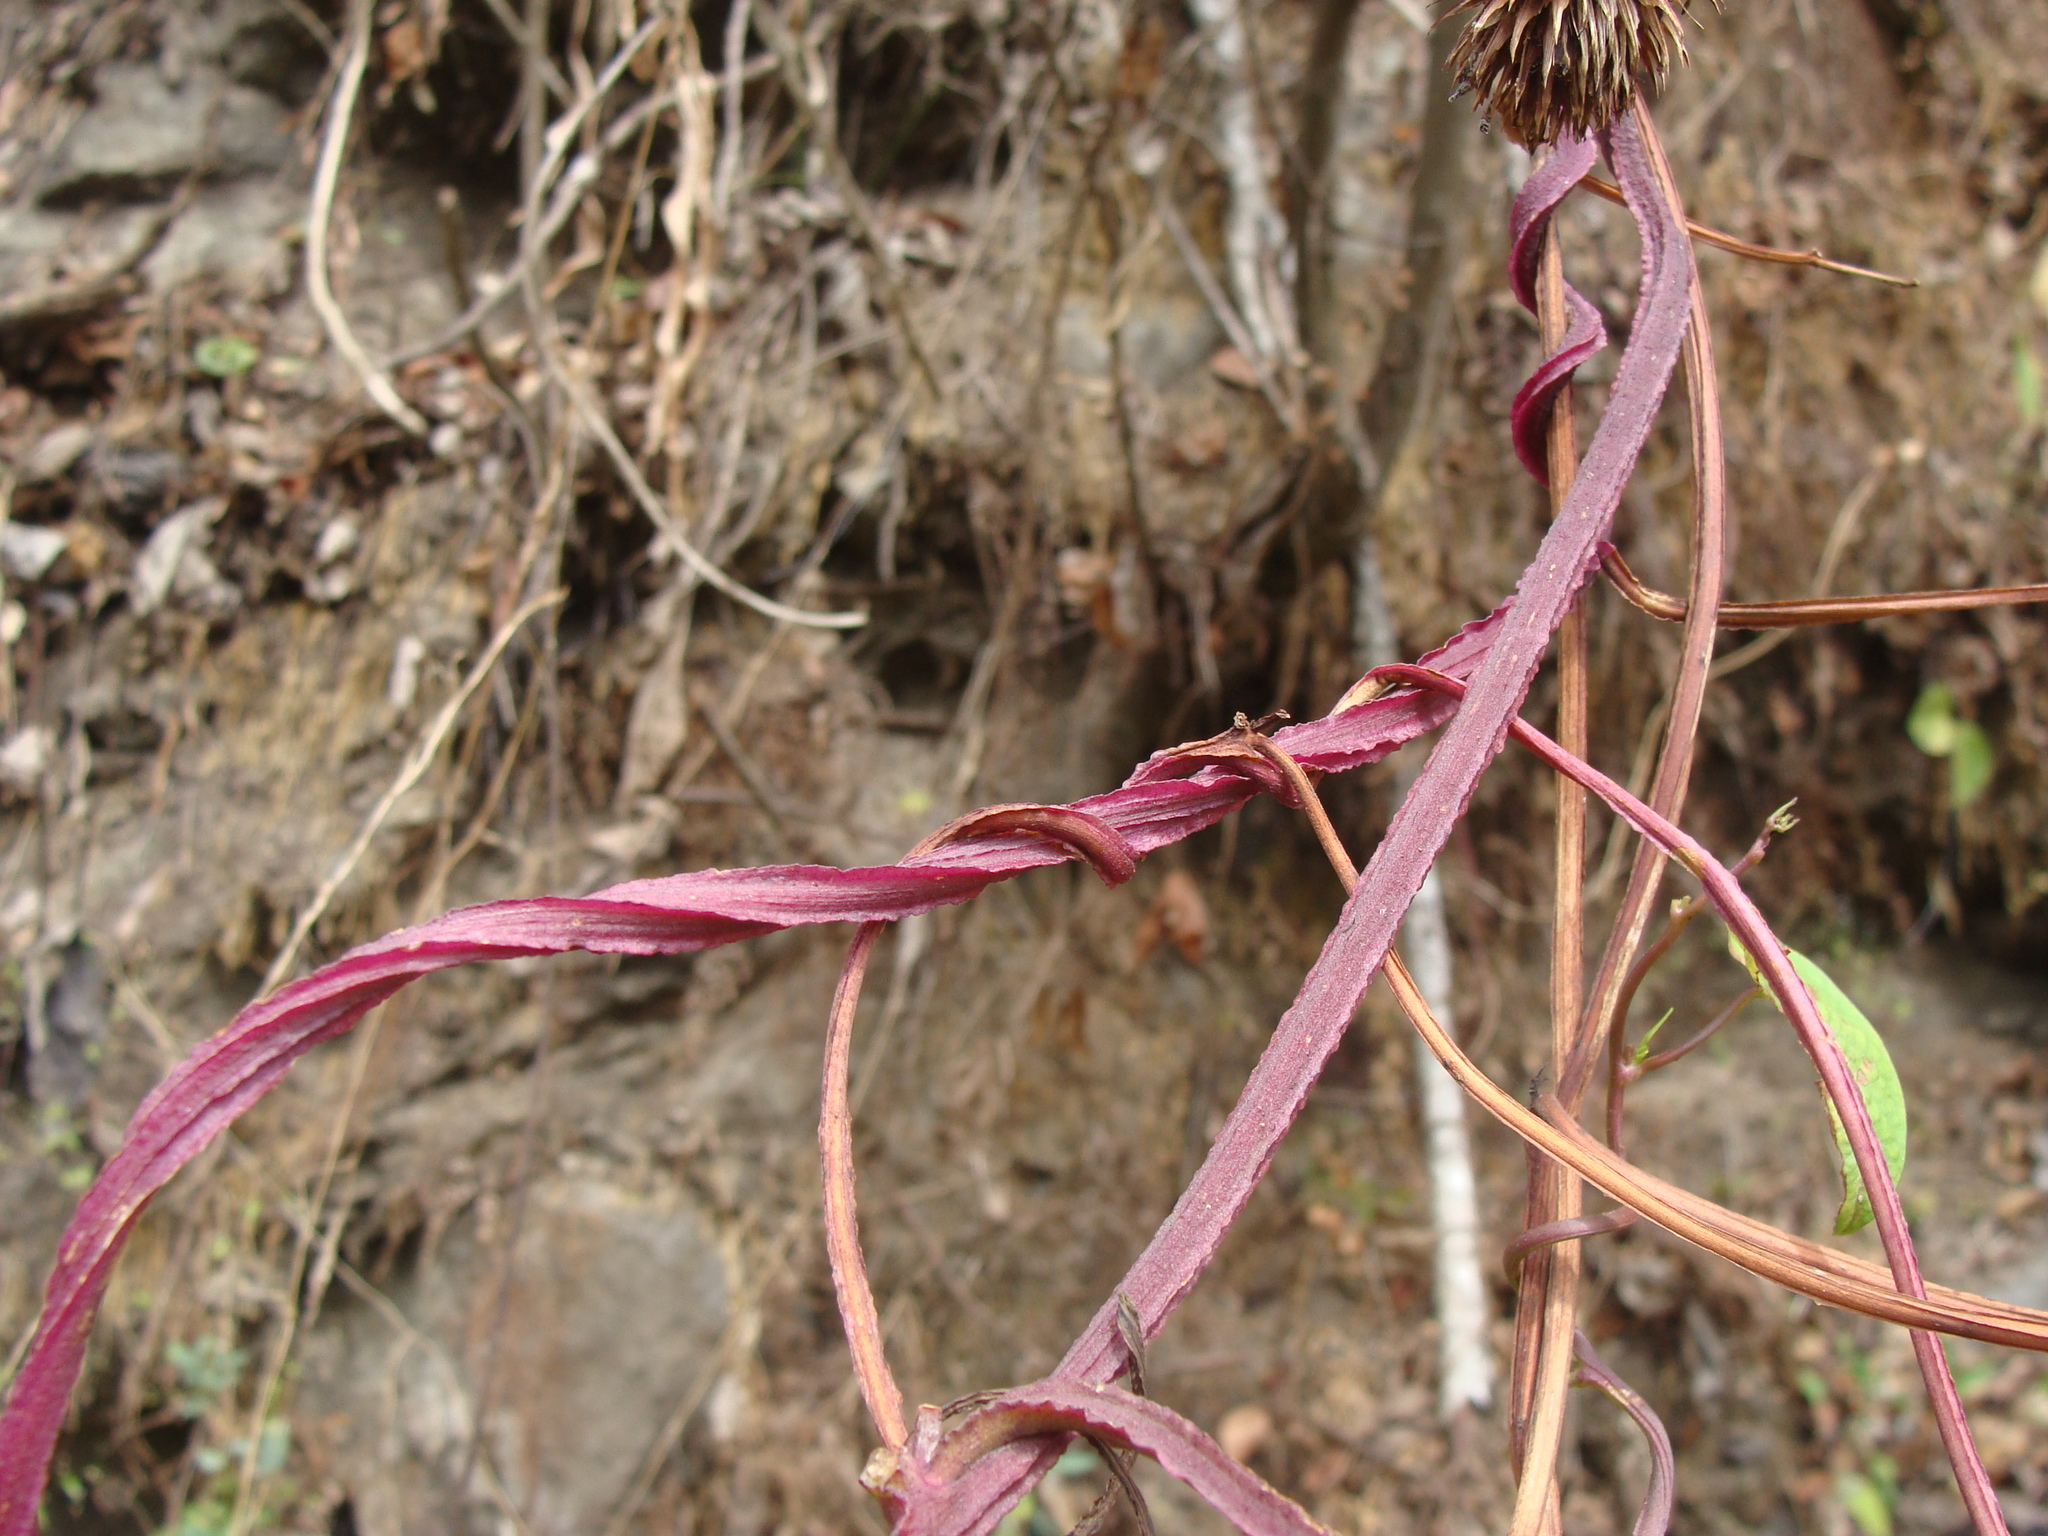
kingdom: Plantae
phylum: Tracheophyta
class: Magnoliopsida
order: Solanales
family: Convolvulaceae
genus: Ipomoea
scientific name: Ipomoea splendor-sylvae
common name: Morning glory
